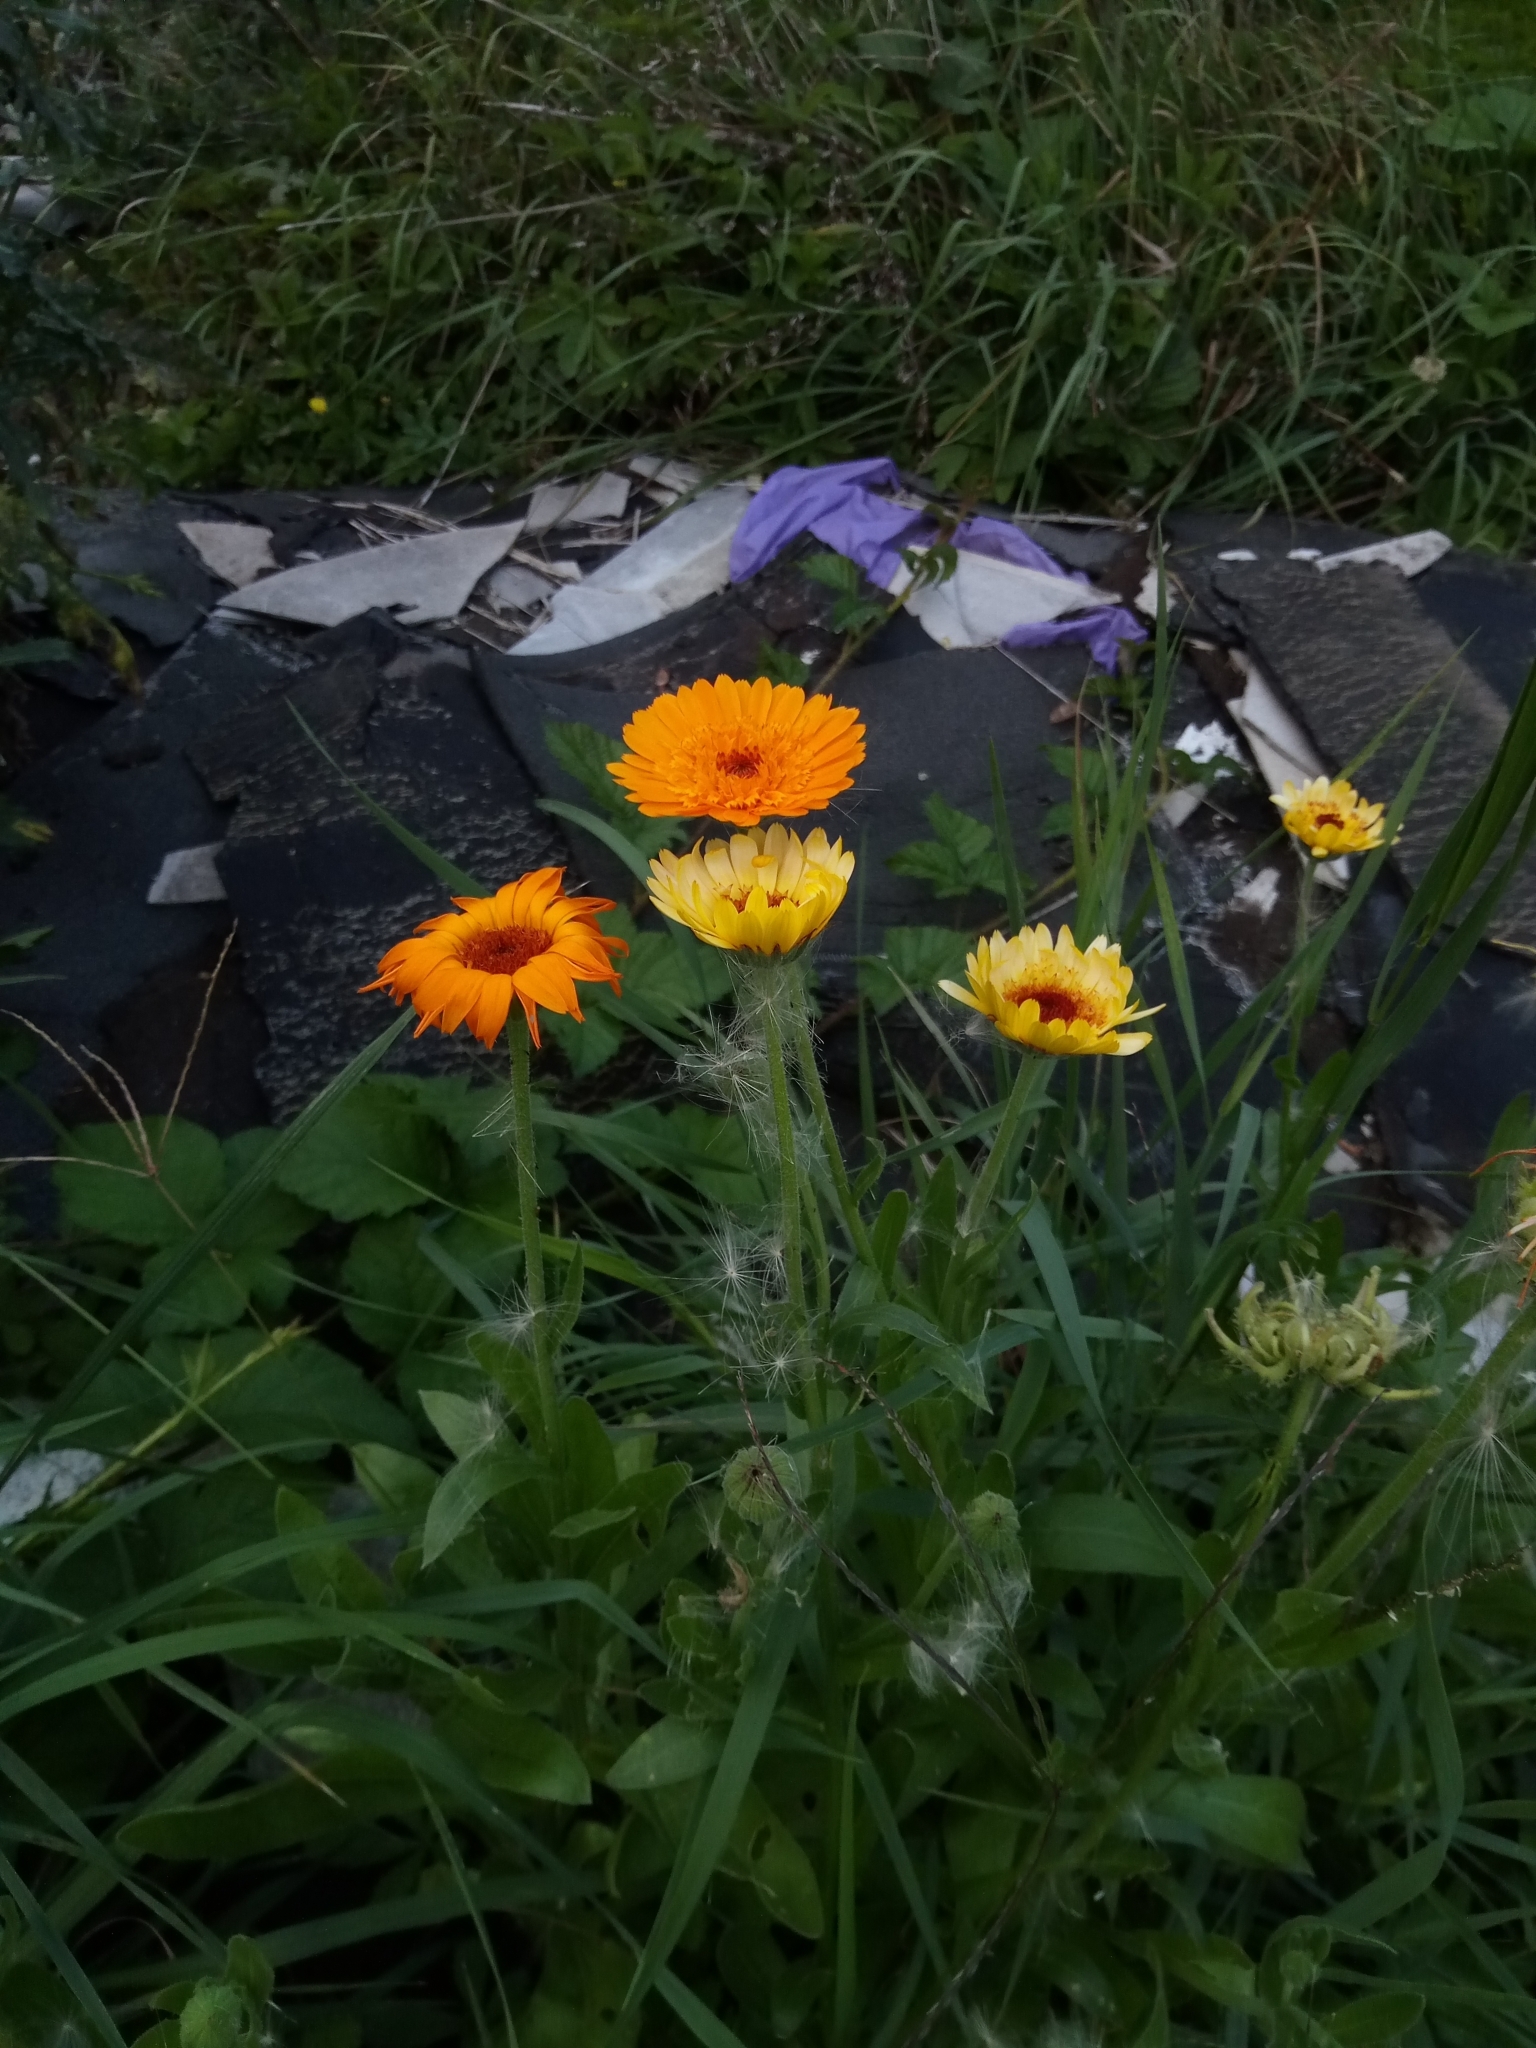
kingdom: Plantae
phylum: Tracheophyta
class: Magnoliopsida
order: Asterales
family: Asteraceae
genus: Calendula
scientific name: Calendula officinalis
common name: Pot marigold
